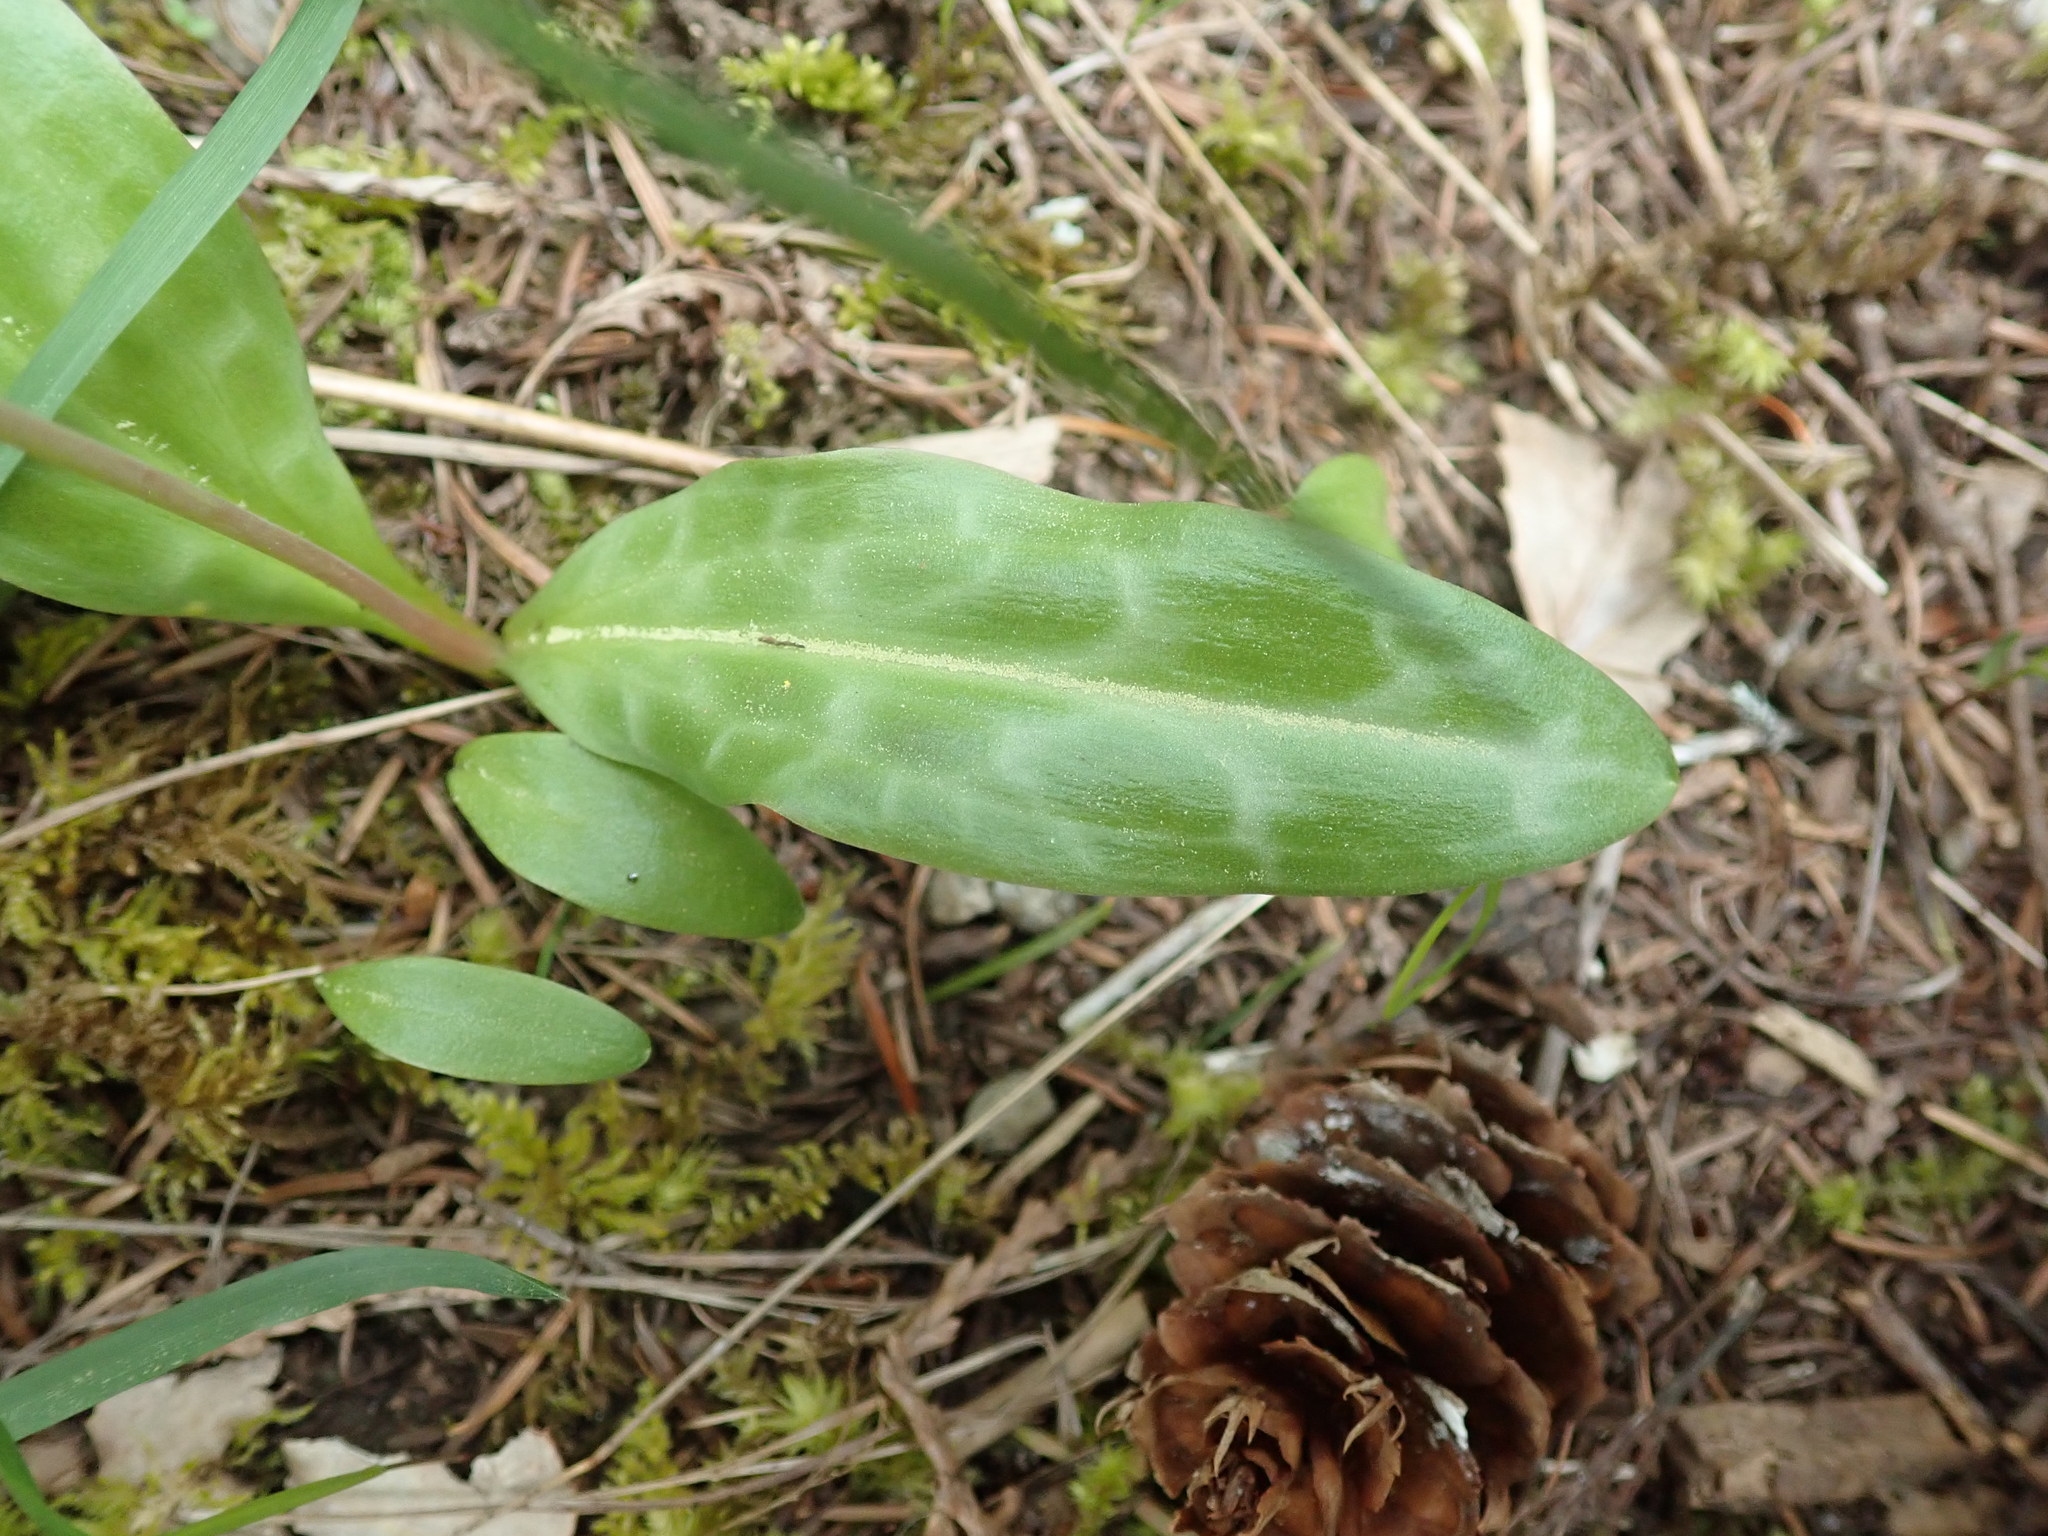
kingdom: Plantae
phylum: Tracheophyta
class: Liliopsida
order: Liliales
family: Liliaceae
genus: Erythronium
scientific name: Erythronium oregonum
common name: Giant adder's-tongue
